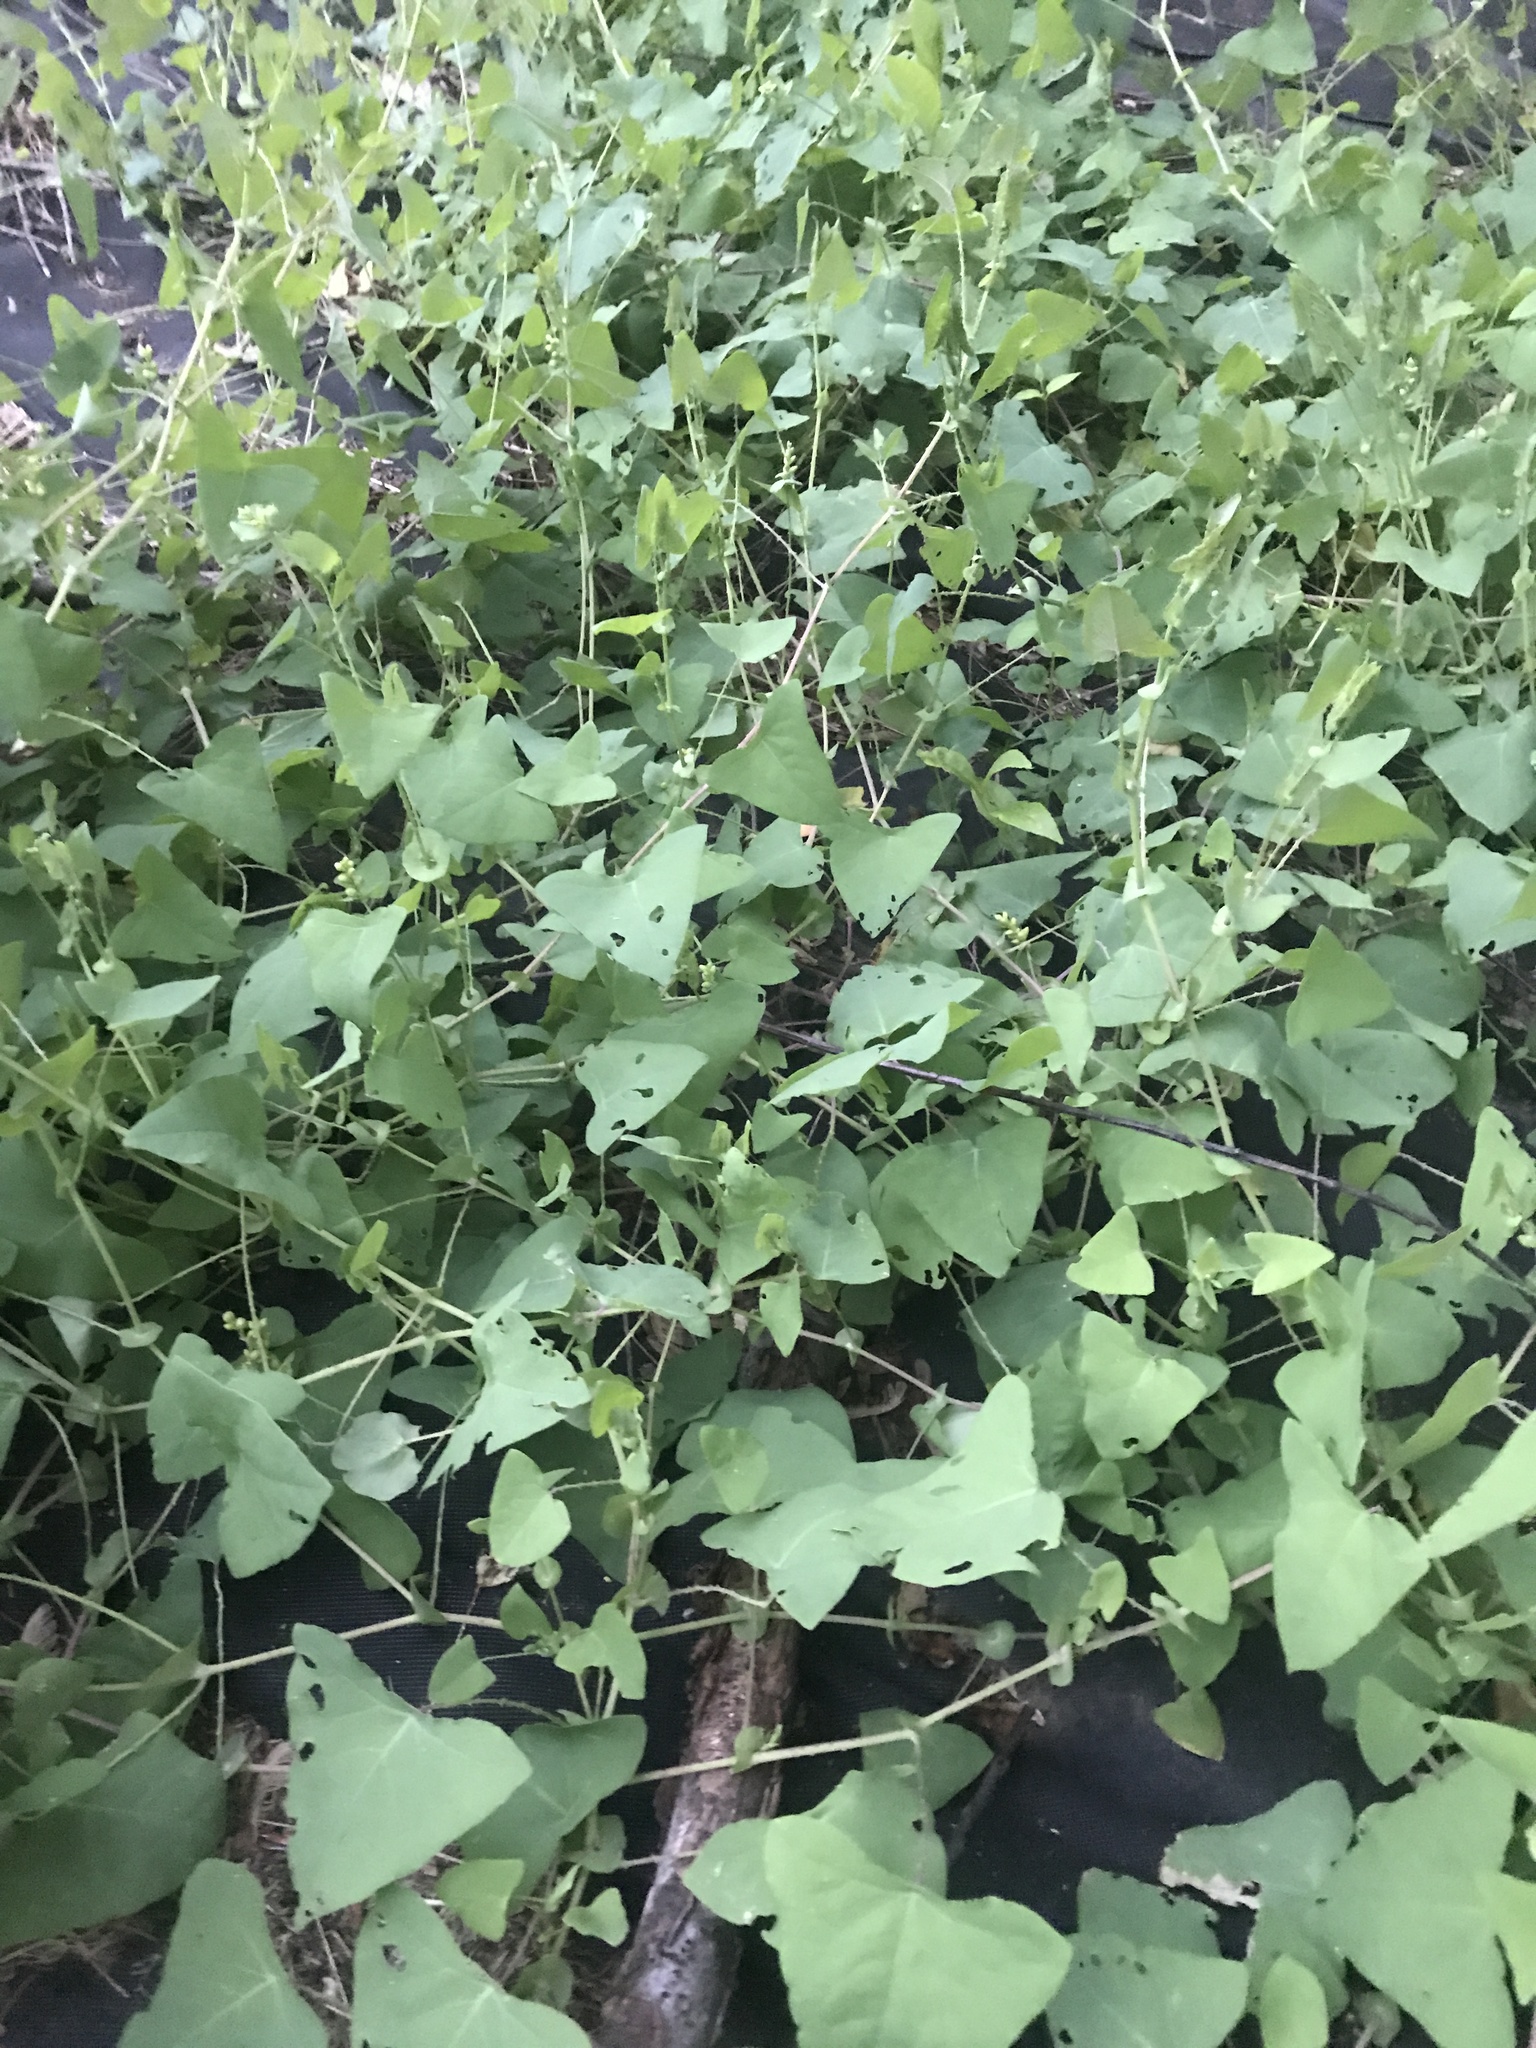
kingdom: Plantae
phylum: Tracheophyta
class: Magnoliopsida
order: Caryophyllales
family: Polygonaceae
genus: Persicaria
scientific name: Persicaria perfoliata
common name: Asiatic tearthumb
